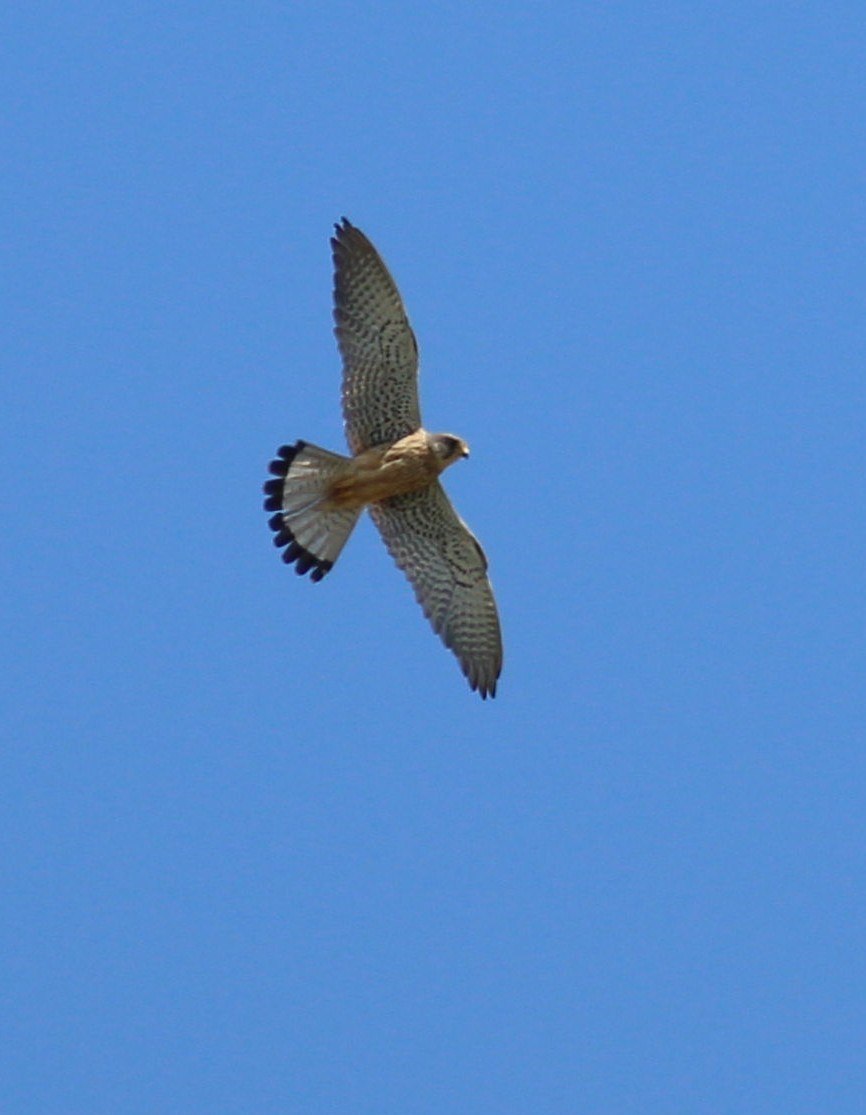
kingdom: Animalia
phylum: Chordata
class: Aves
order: Falconiformes
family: Falconidae
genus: Falco
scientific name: Falco tinnunculus
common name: Common kestrel
